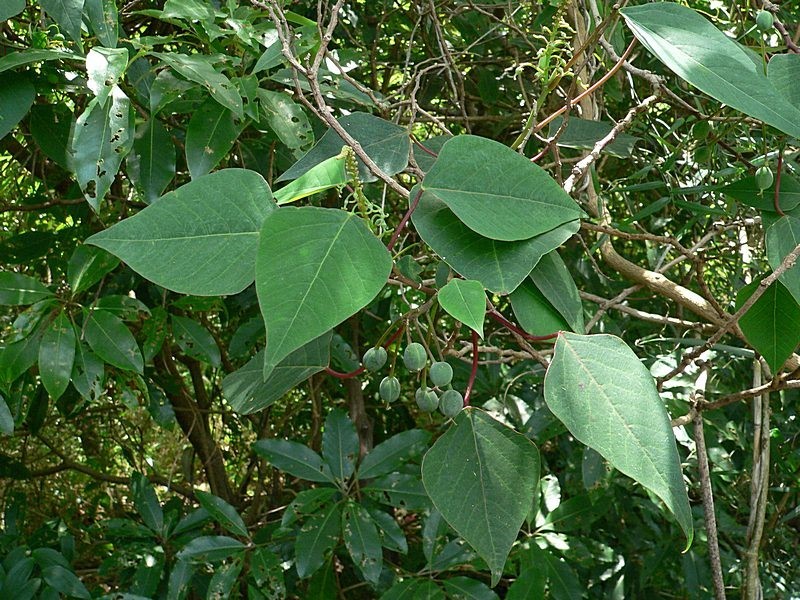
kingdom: Plantae
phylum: Tracheophyta
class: Magnoliopsida
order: Malpighiales
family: Euphorbiaceae
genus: Homalanthus
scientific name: Homalanthus populifolius
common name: Queensland poplar
